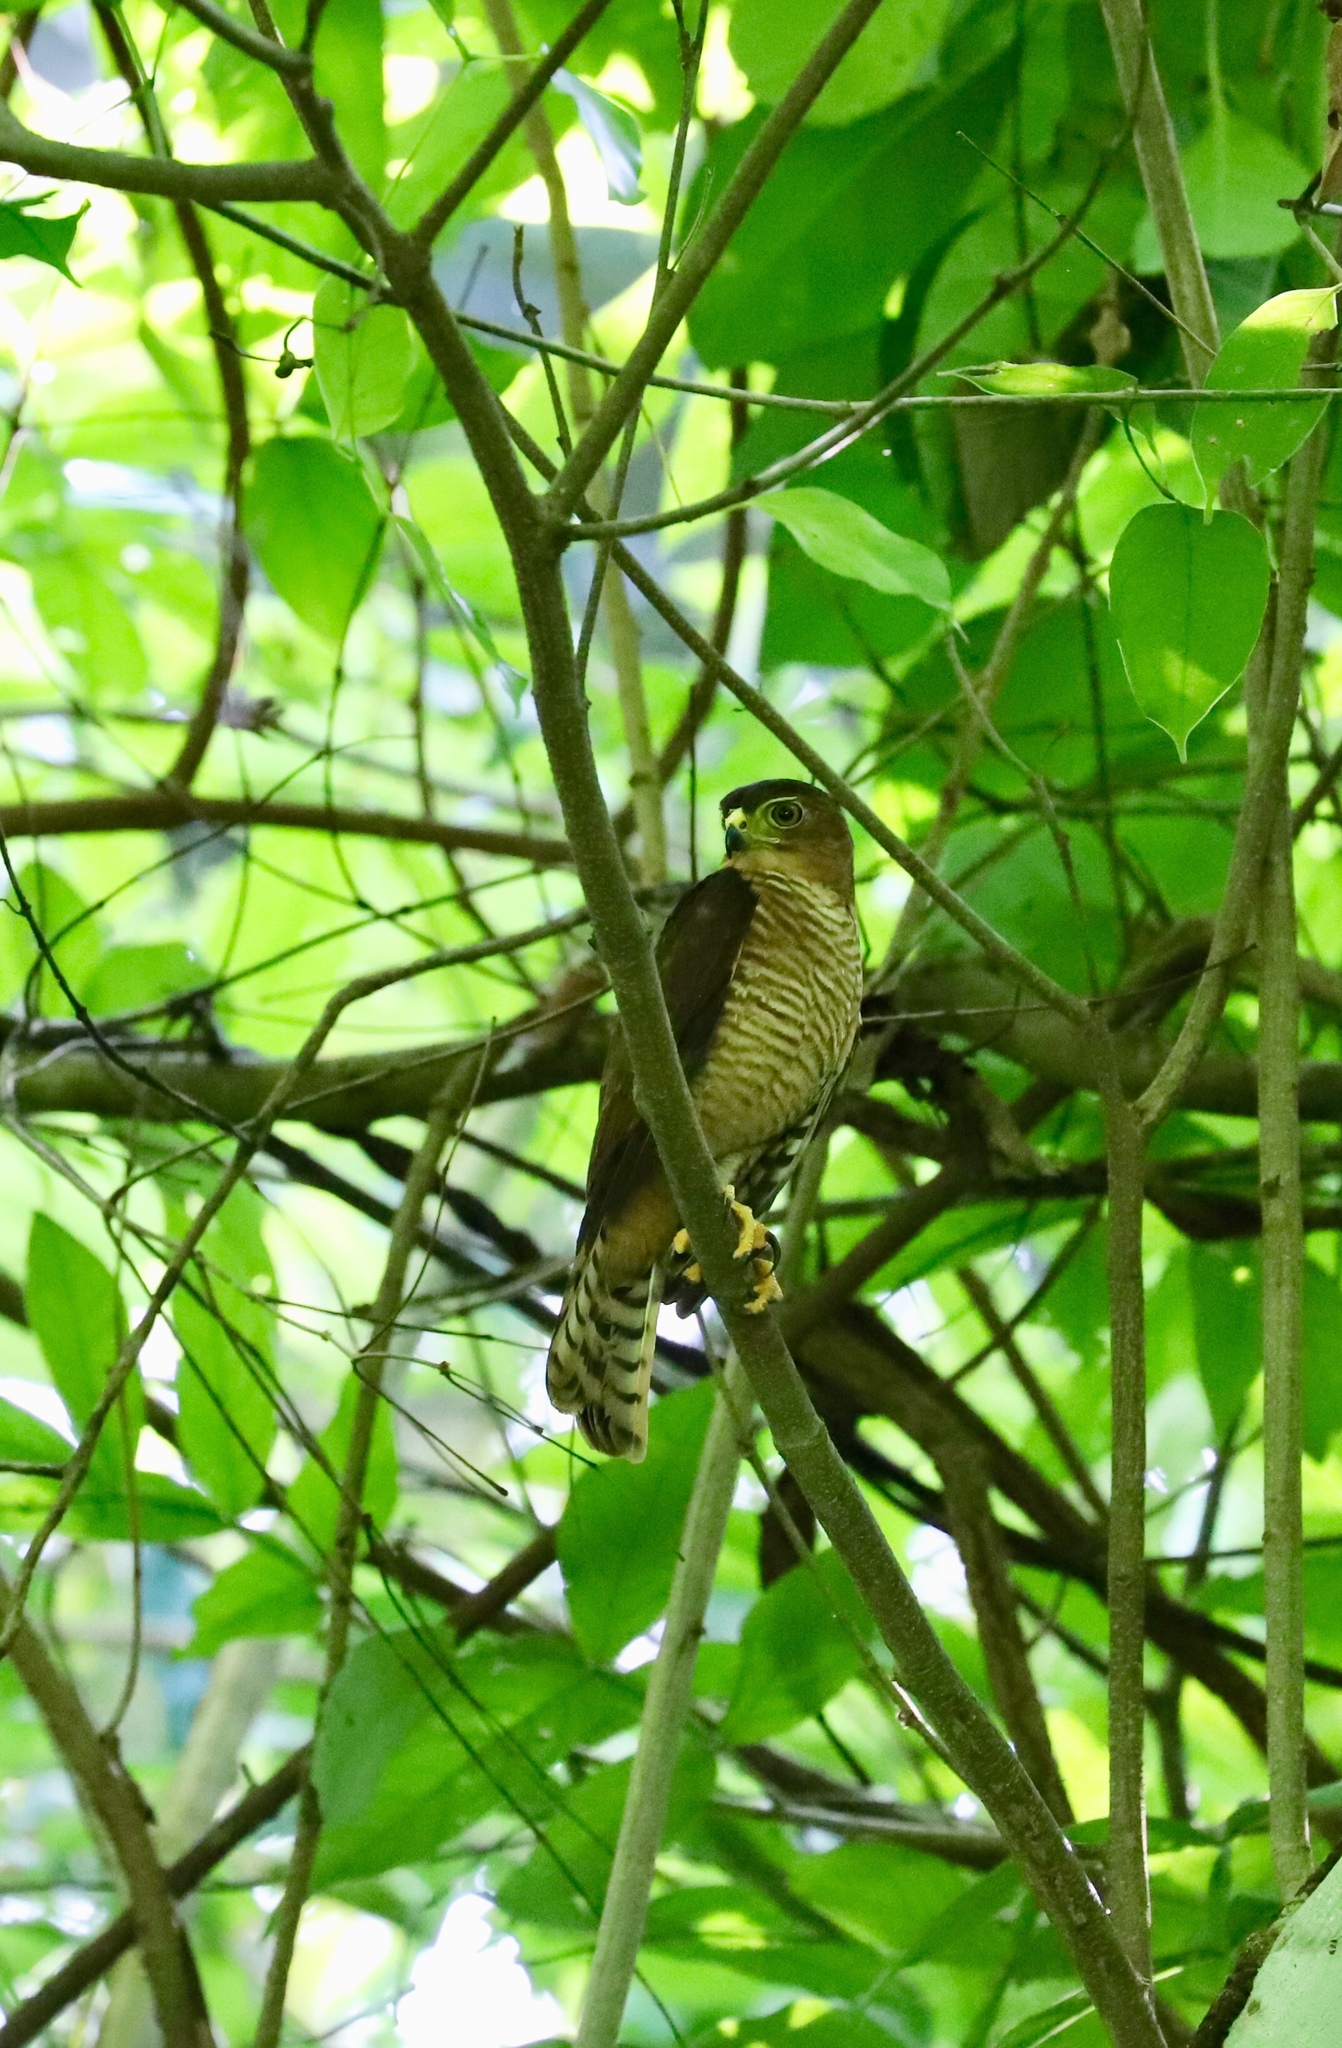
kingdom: Animalia
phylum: Chordata
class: Aves
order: Accipitriformes
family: Accipitridae
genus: Accipiter
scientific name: Accipiter superciliosus
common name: Tiny hawk
